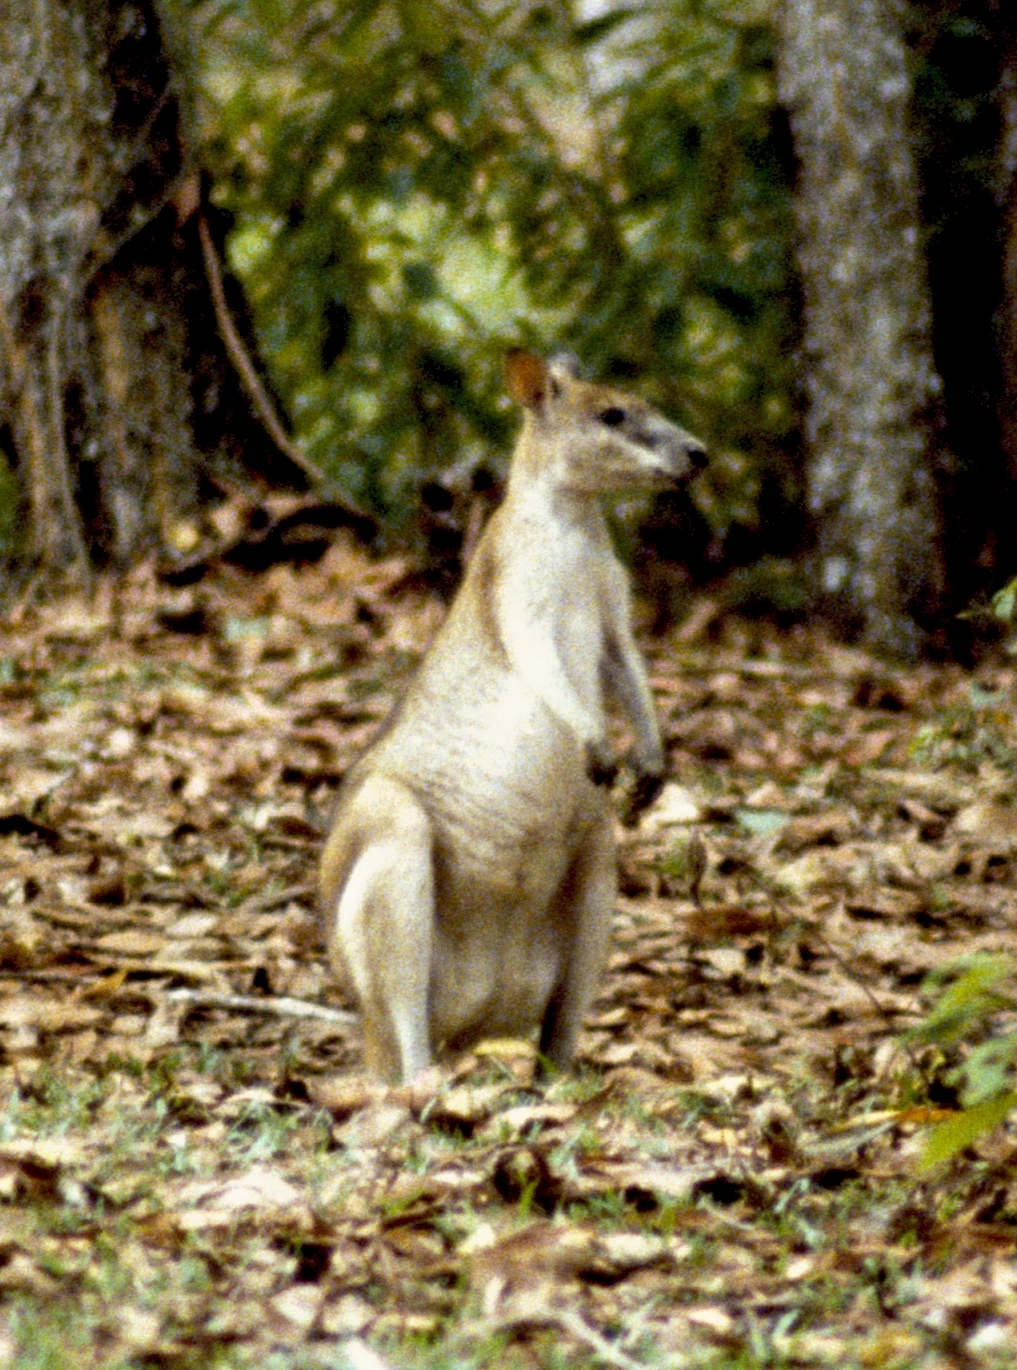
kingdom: Animalia
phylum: Chordata
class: Mammalia
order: Diprotodontia
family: Macropodidae
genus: Macropus
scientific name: Macropus agilis
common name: Agile wallaby
